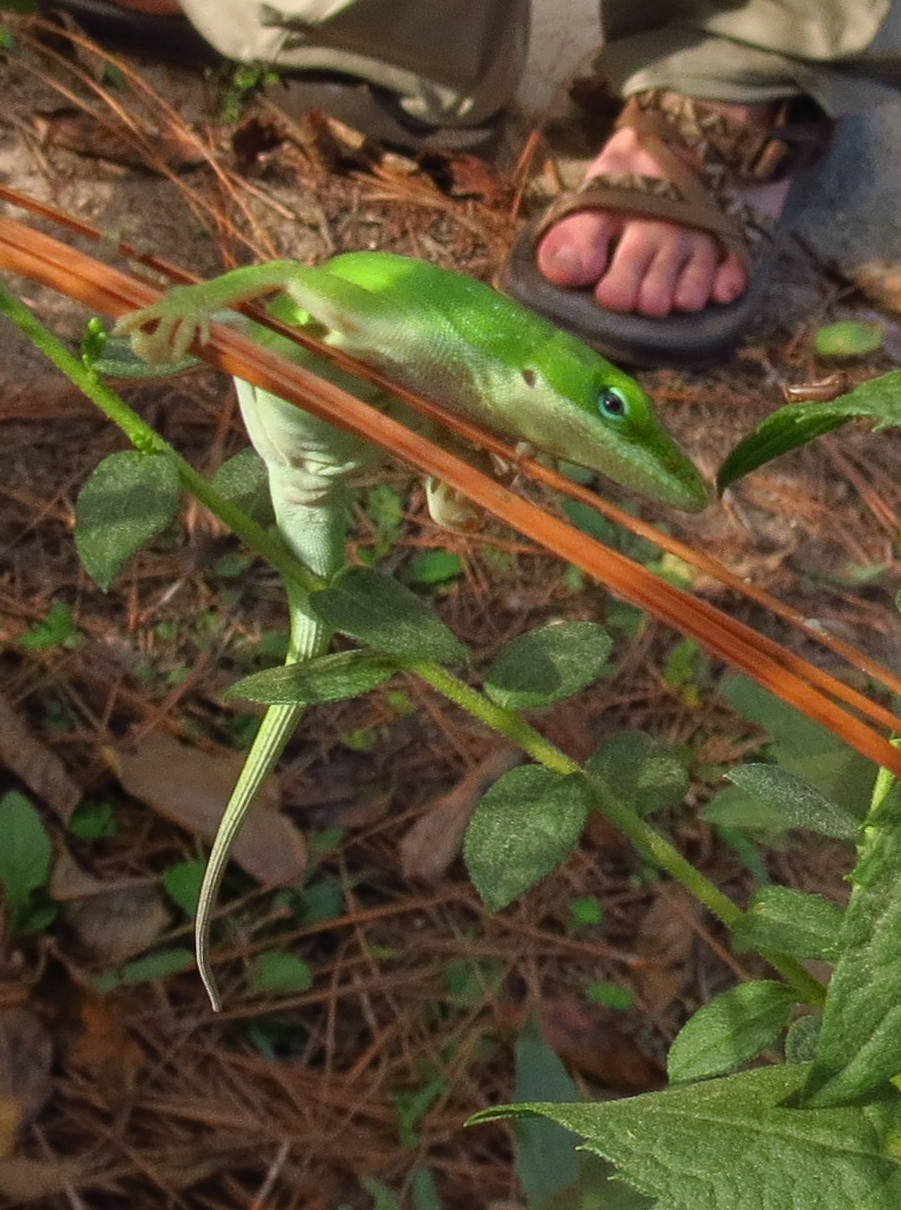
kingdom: Animalia
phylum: Chordata
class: Squamata
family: Dactyloidae
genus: Anolis
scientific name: Anolis carolinensis
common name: Green anole
